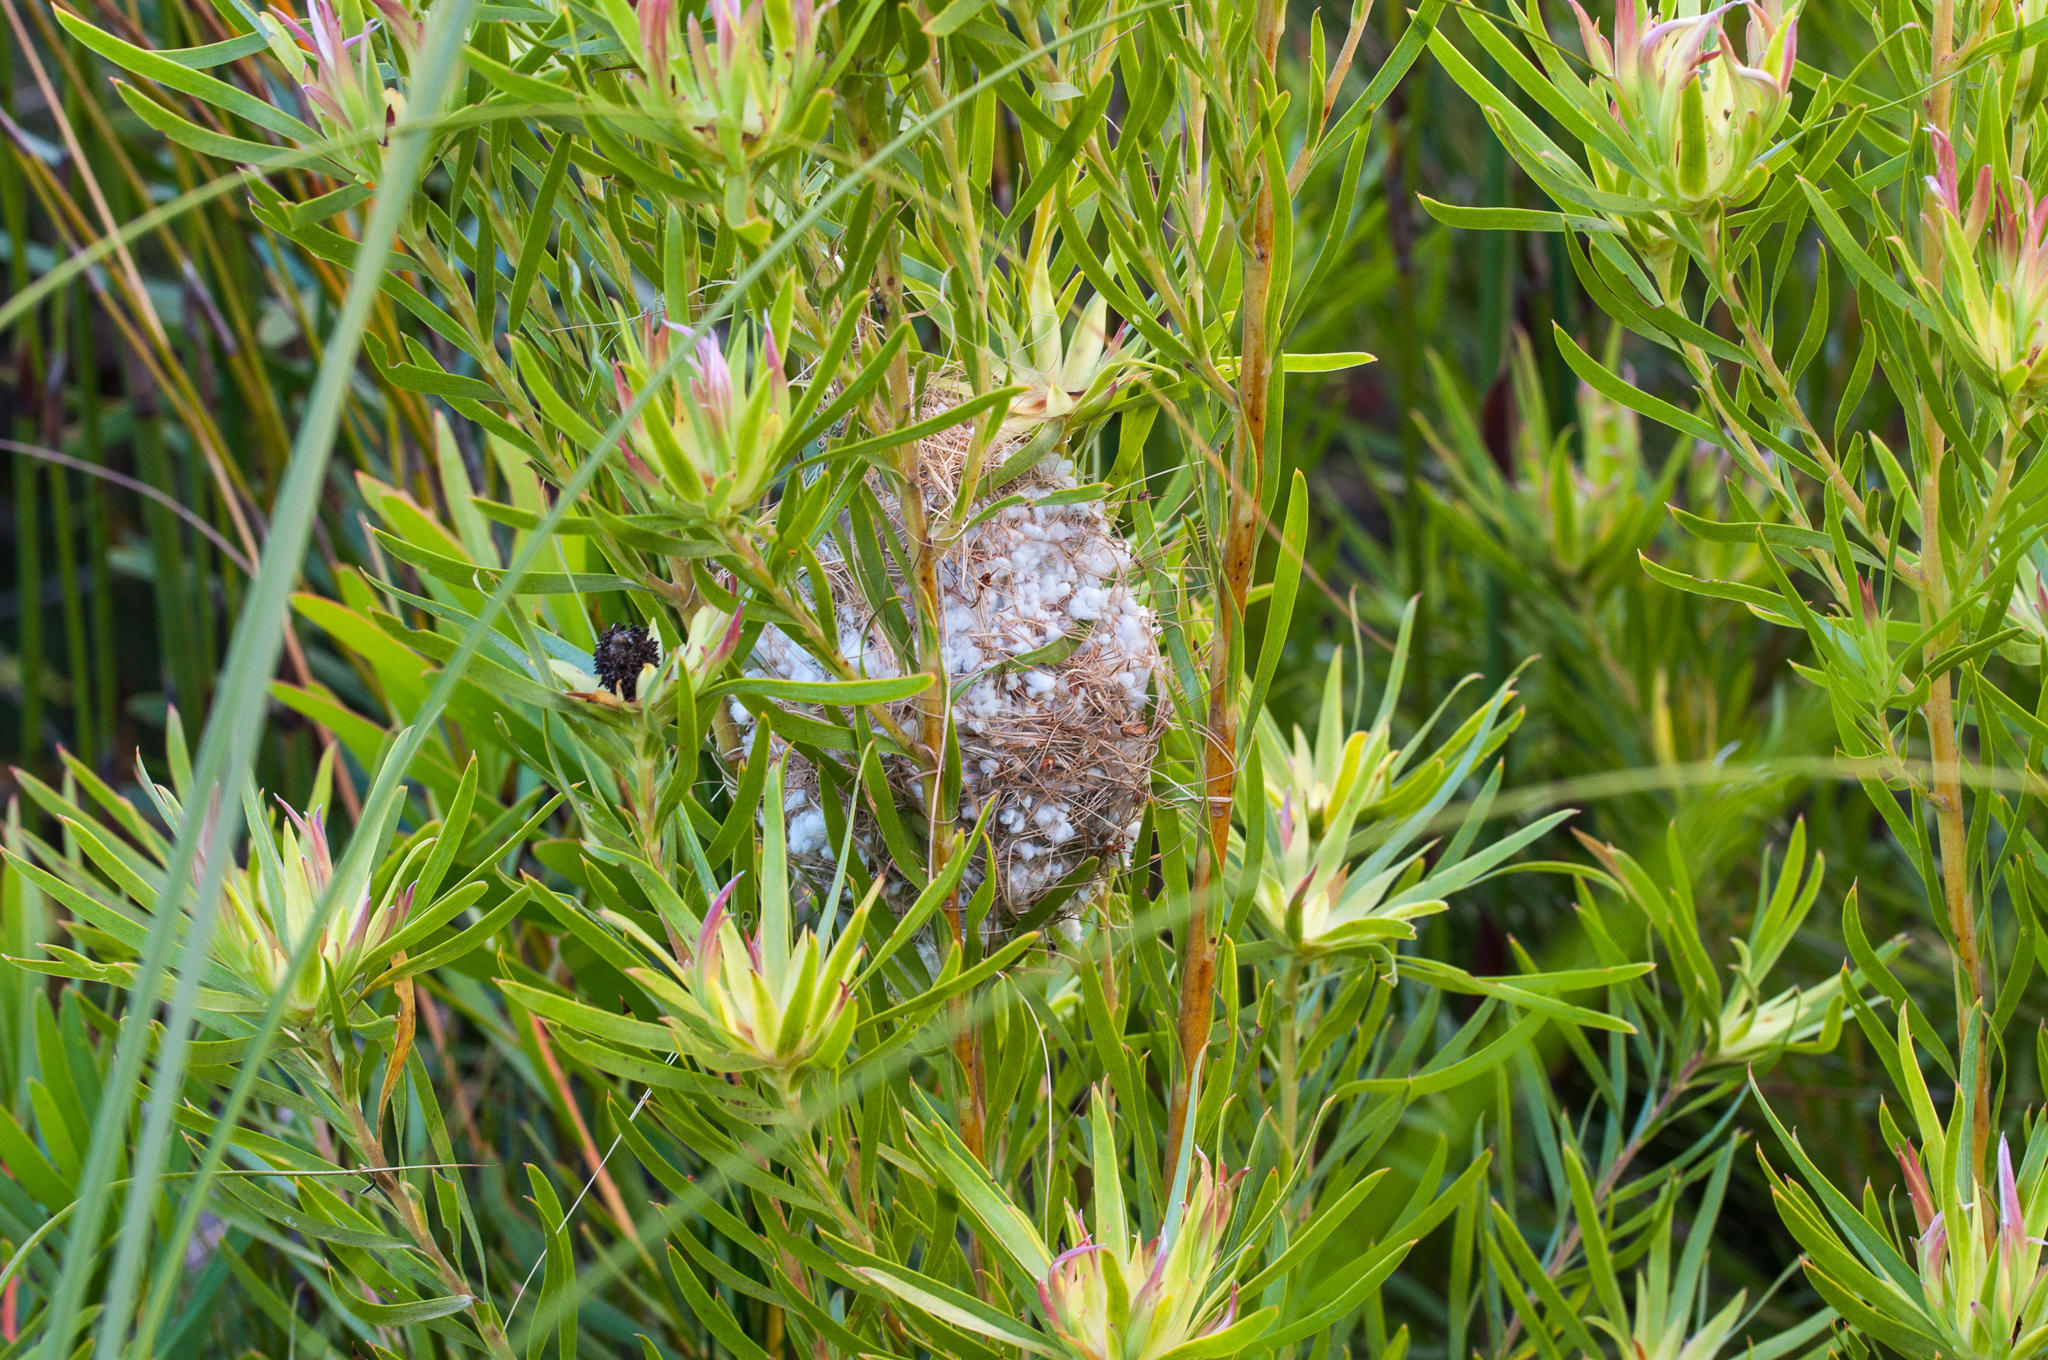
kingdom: Animalia
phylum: Chordata
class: Aves
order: Passeriformes
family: Nectariniidae
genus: Anthobaphes
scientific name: Anthobaphes violacea
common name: Orange-breasted sunbird
